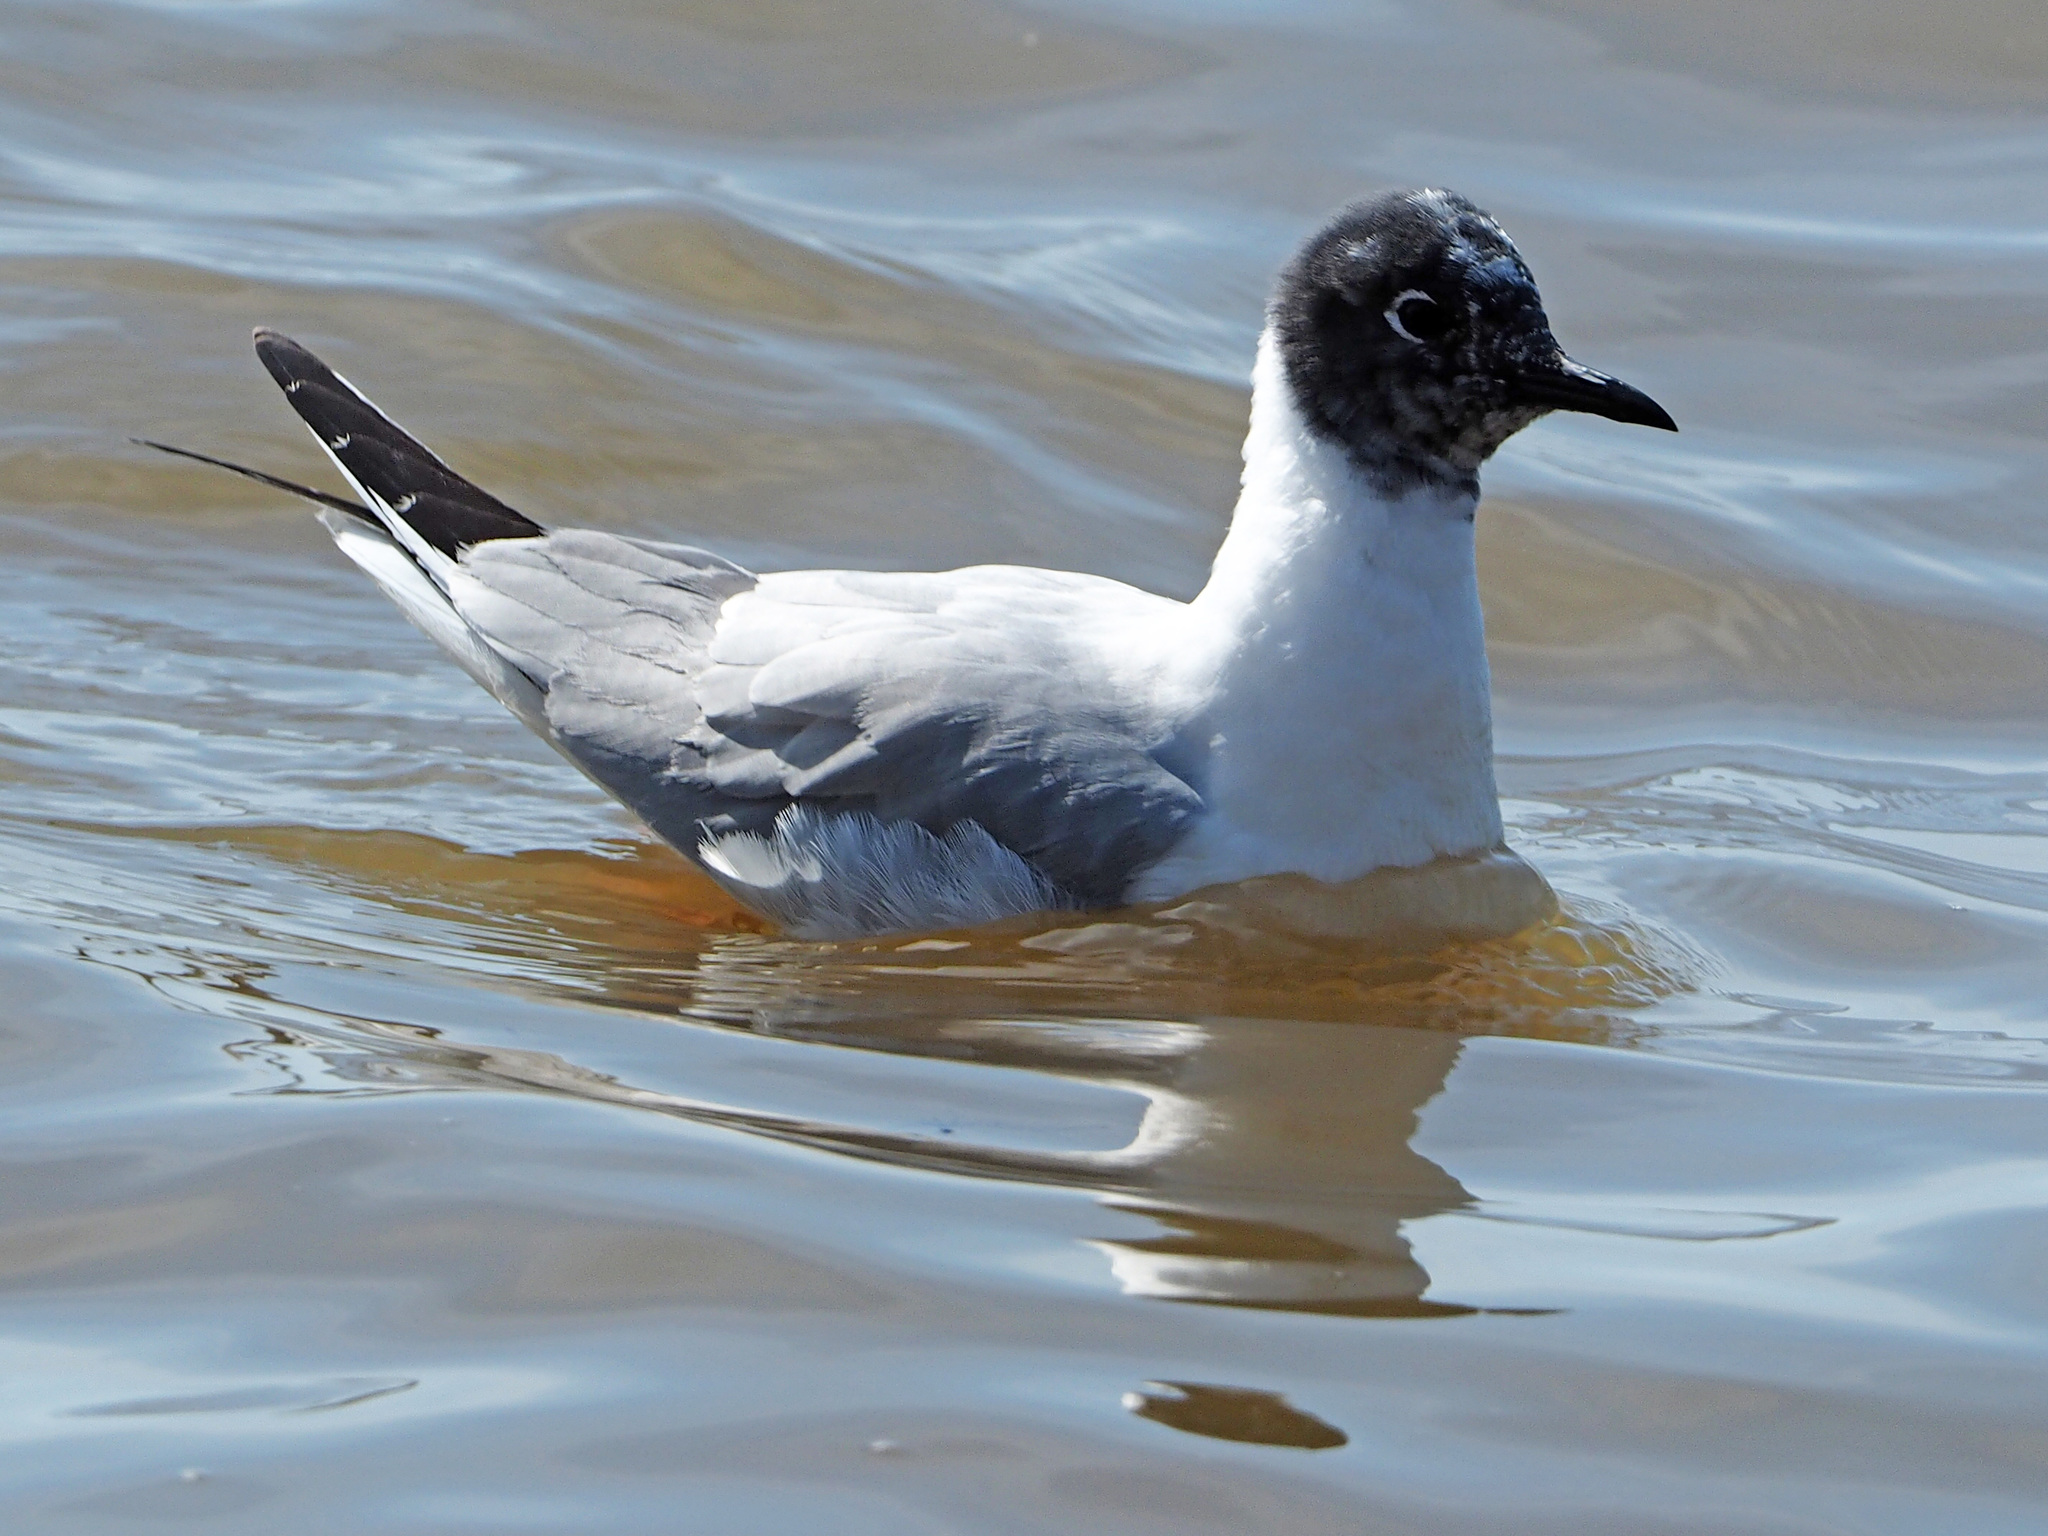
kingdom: Animalia
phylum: Chordata
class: Aves
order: Charadriiformes
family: Laridae
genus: Chroicocephalus
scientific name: Chroicocephalus philadelphia
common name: Bonaparte's gull
